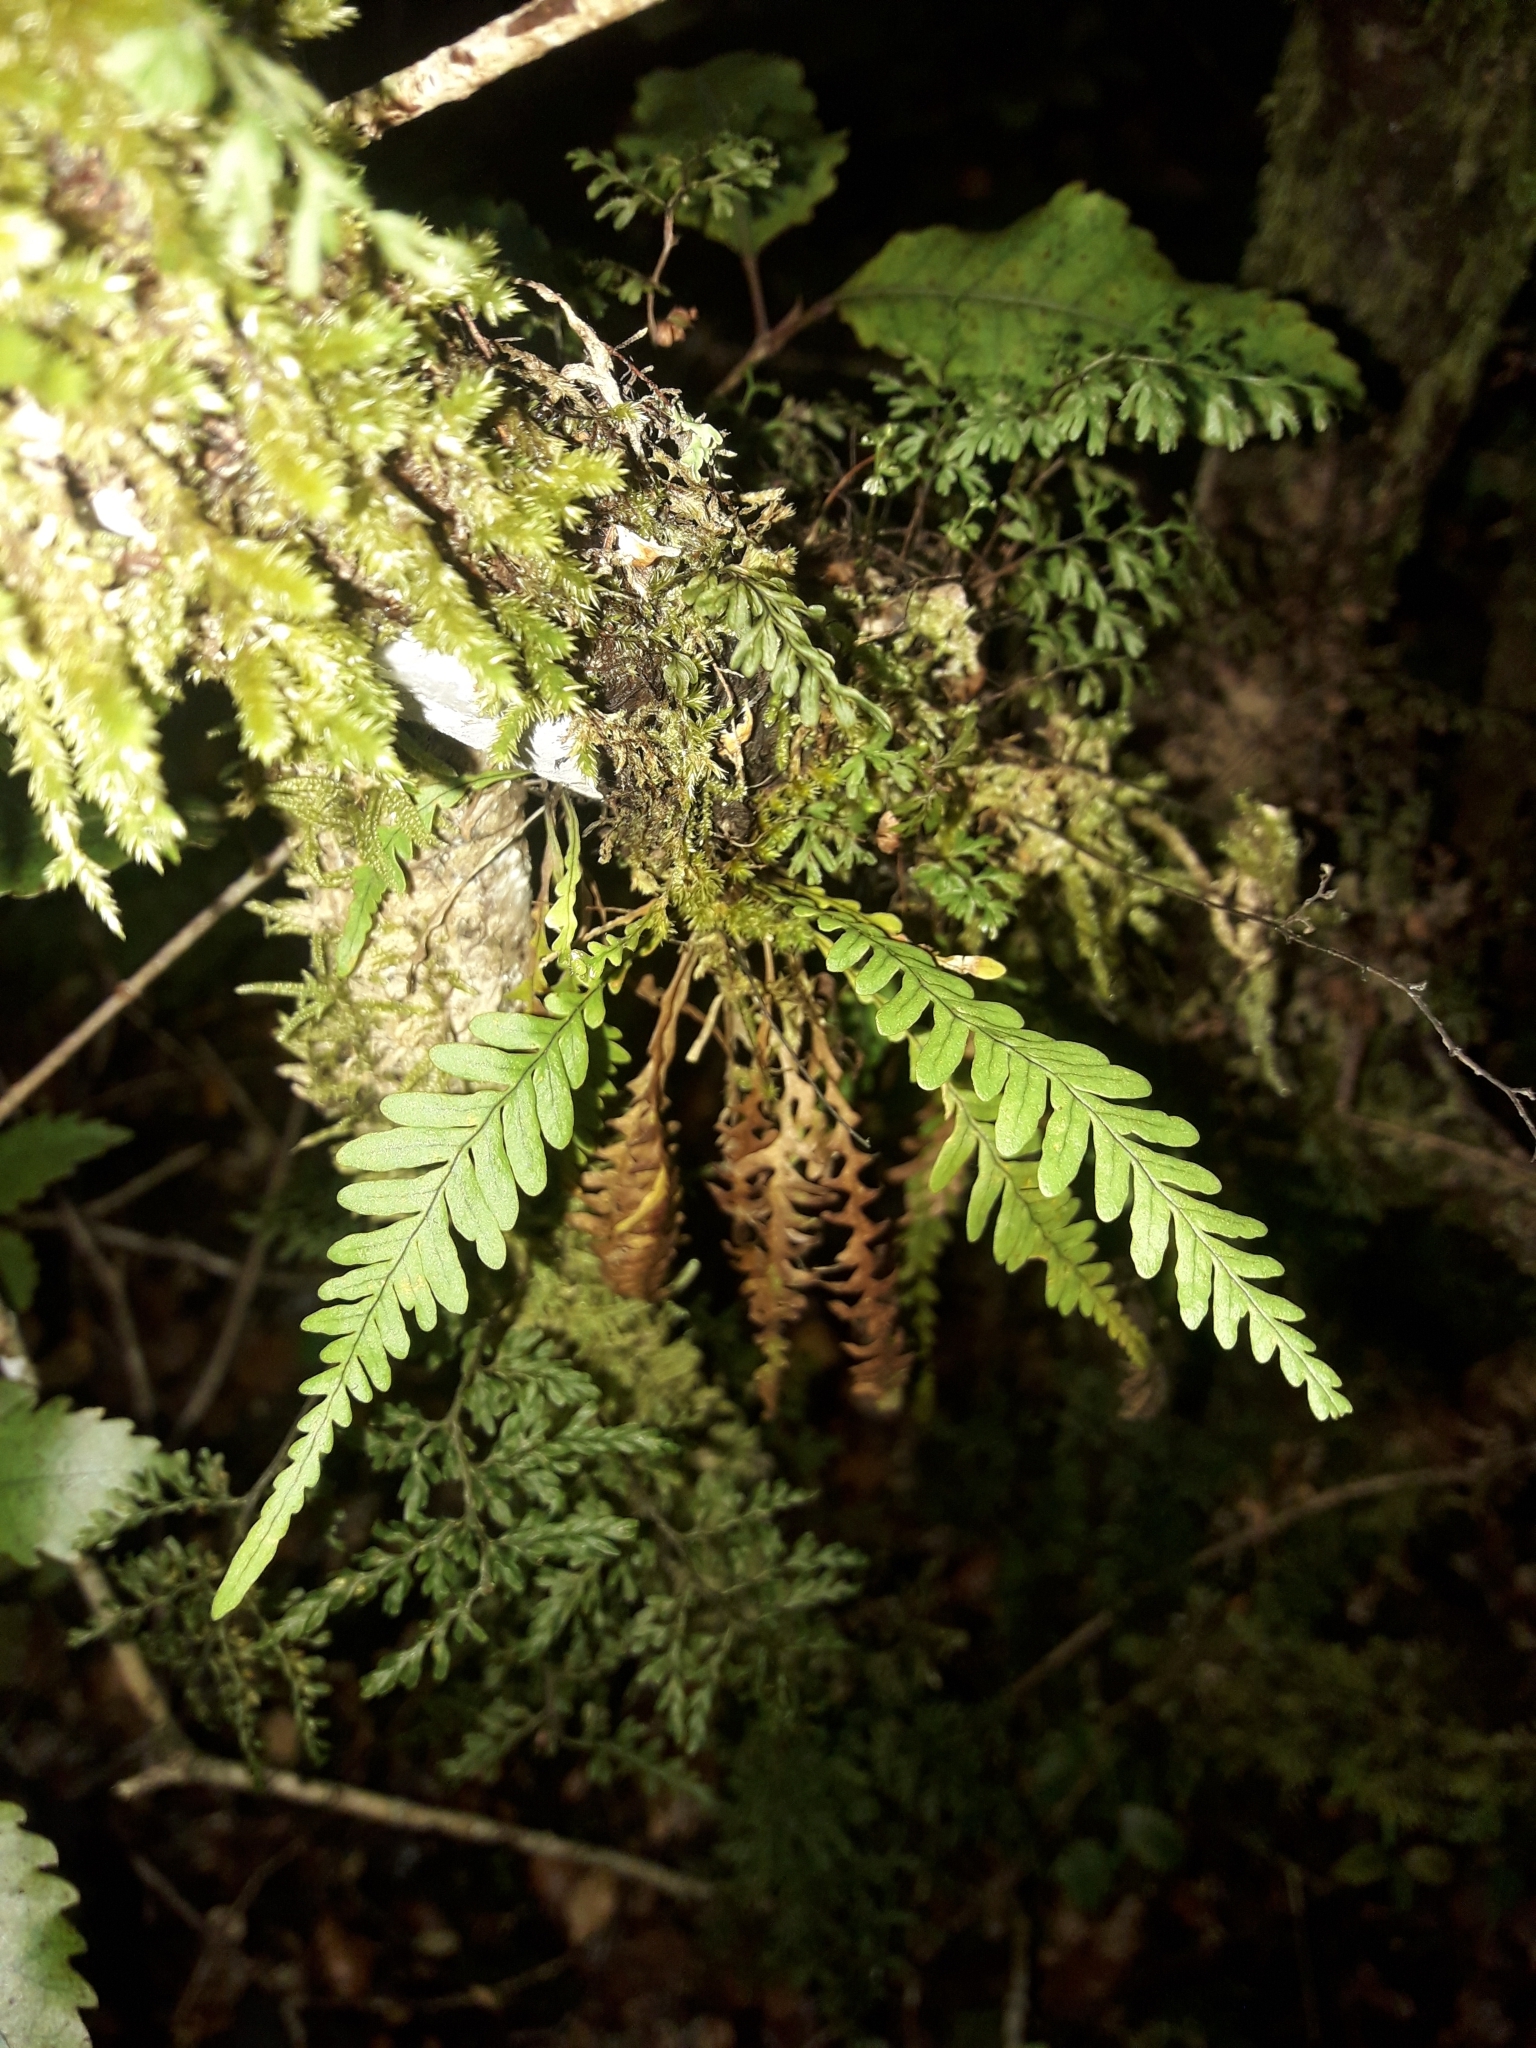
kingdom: Plantae
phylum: Tracheophyta
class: Polypodiopsida
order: Polypodiales
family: Polypodiaceae
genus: Notogrammitis
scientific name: Notogrammitis heterophylla
